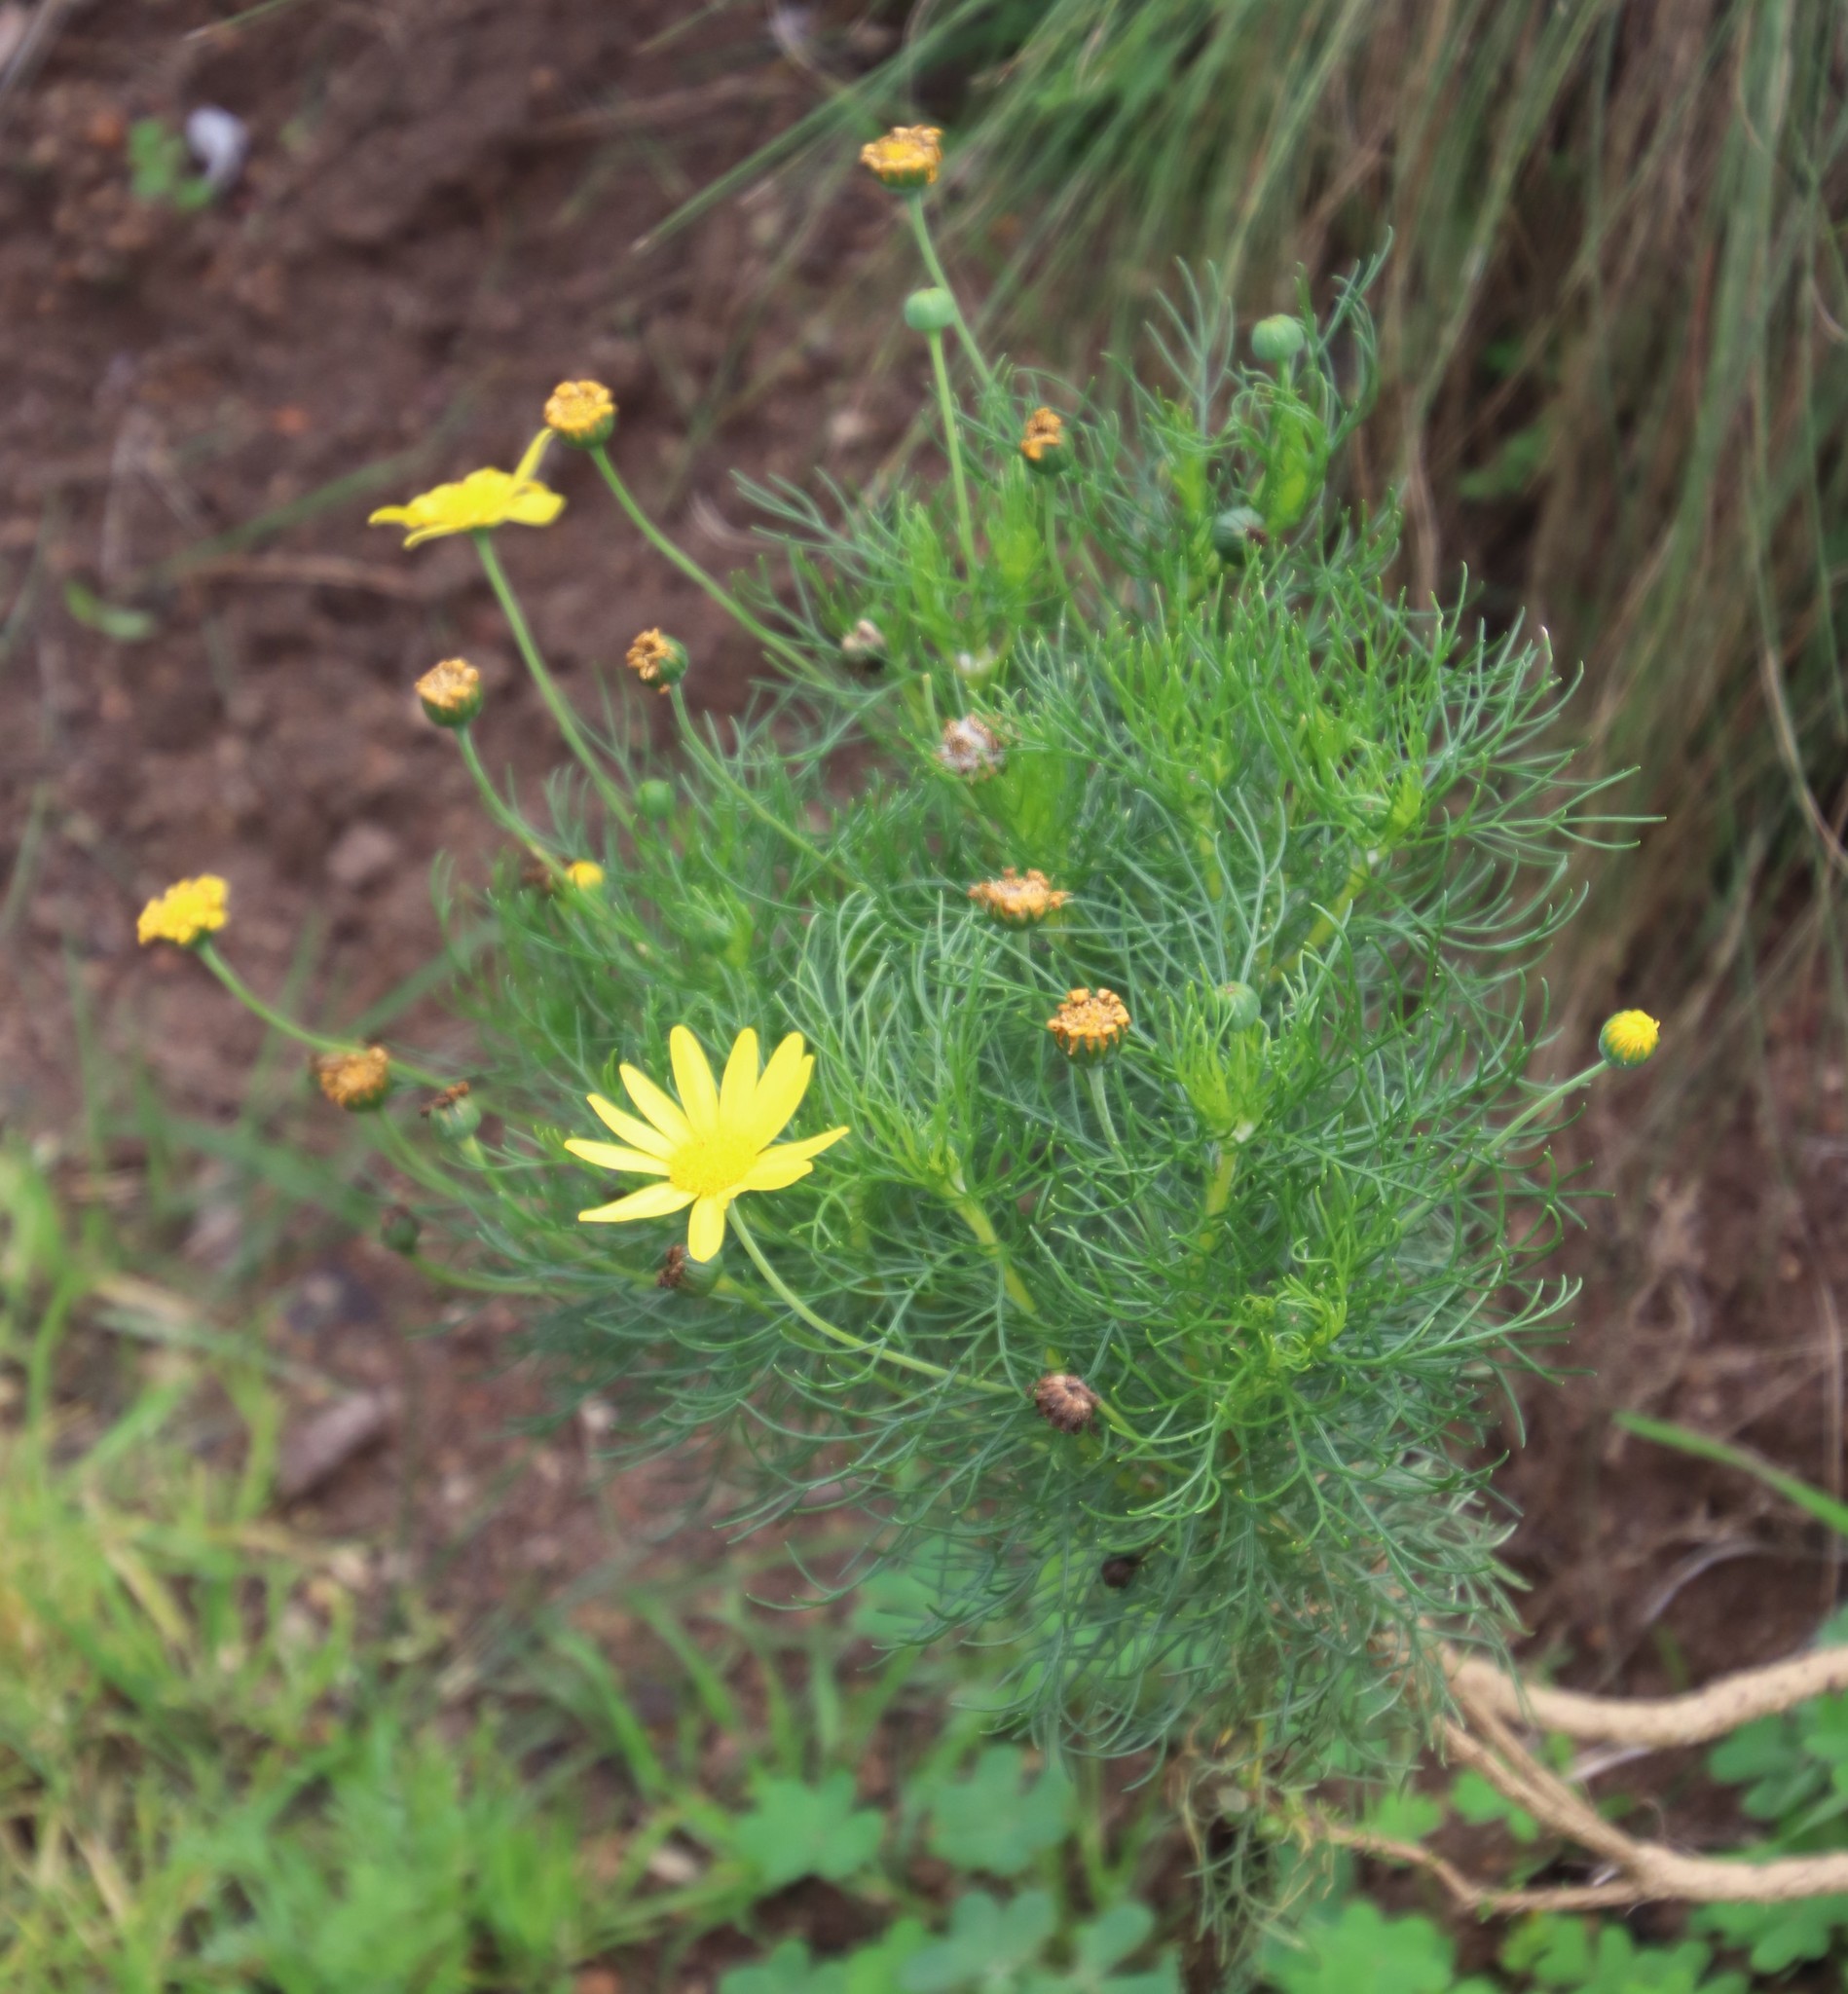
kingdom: Plantae
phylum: Tracheophyta
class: Magnoliopsida
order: Asterales
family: Asteraceae
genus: Euryops
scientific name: Euryops abrotanifolius
